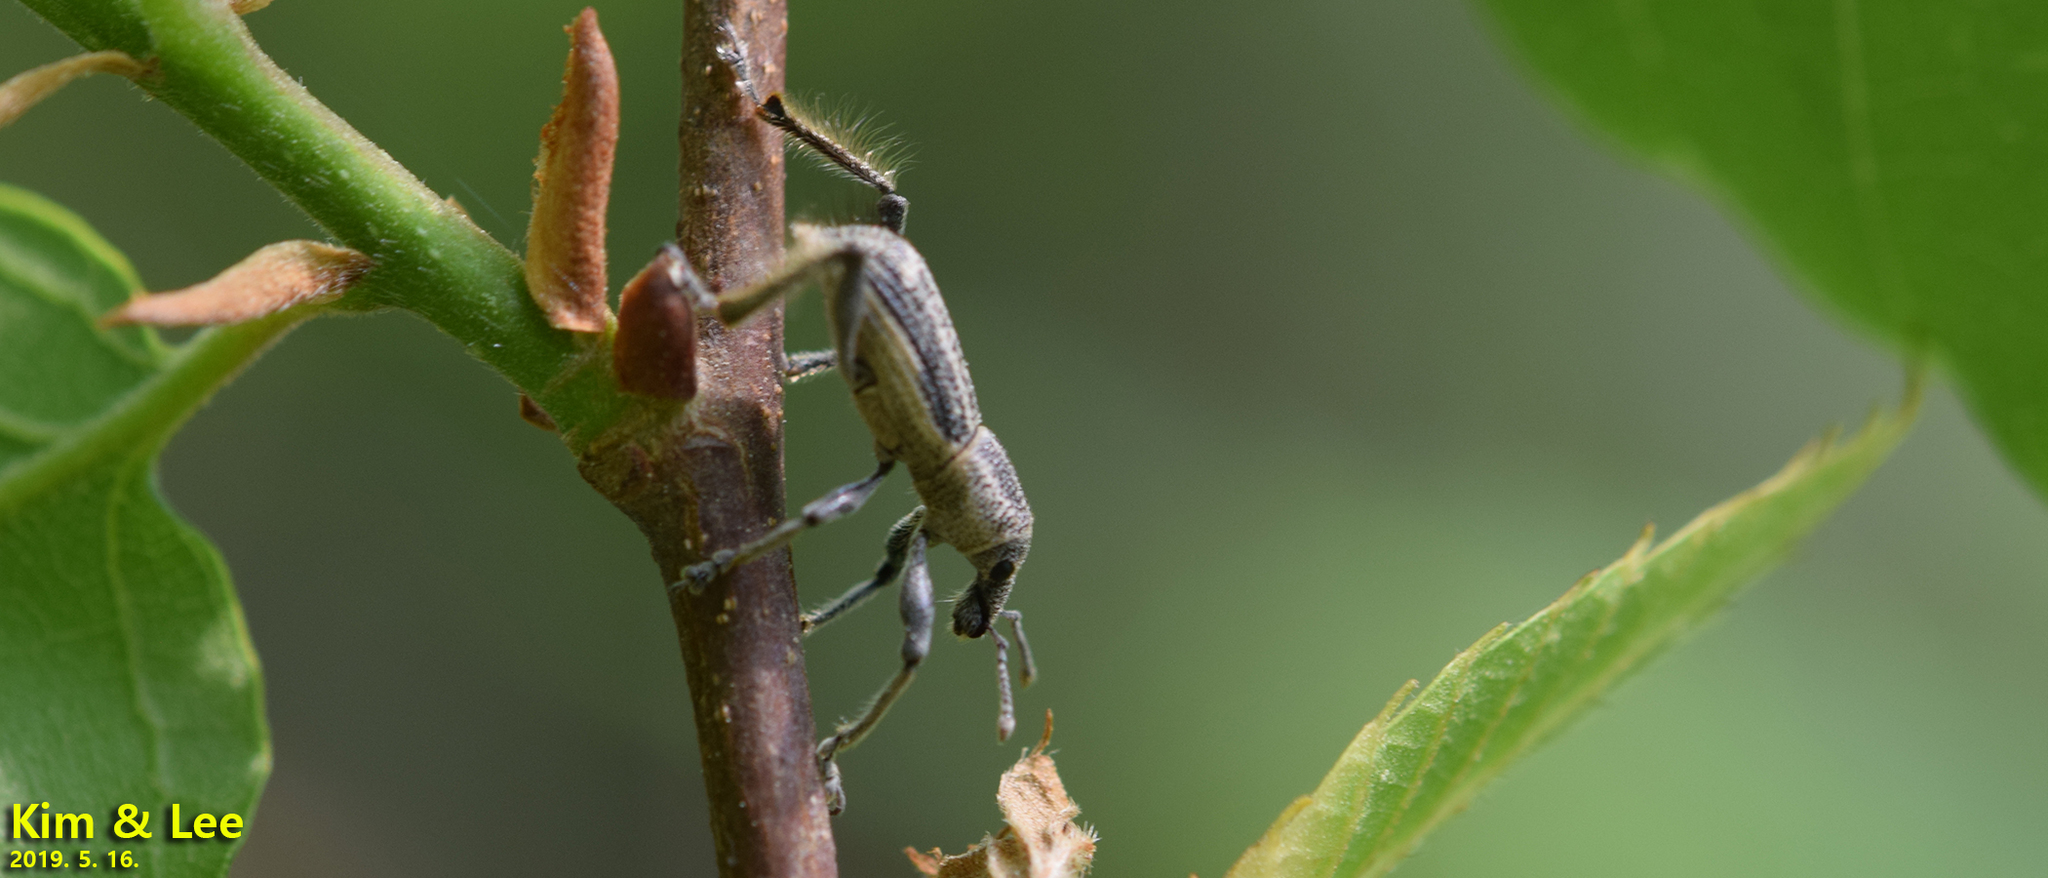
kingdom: Animalia
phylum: Arthropoda
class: Insecta
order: Coleoptera
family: Curculionidae
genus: Enaptorhinus
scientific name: Enaptorhinus granulatus
